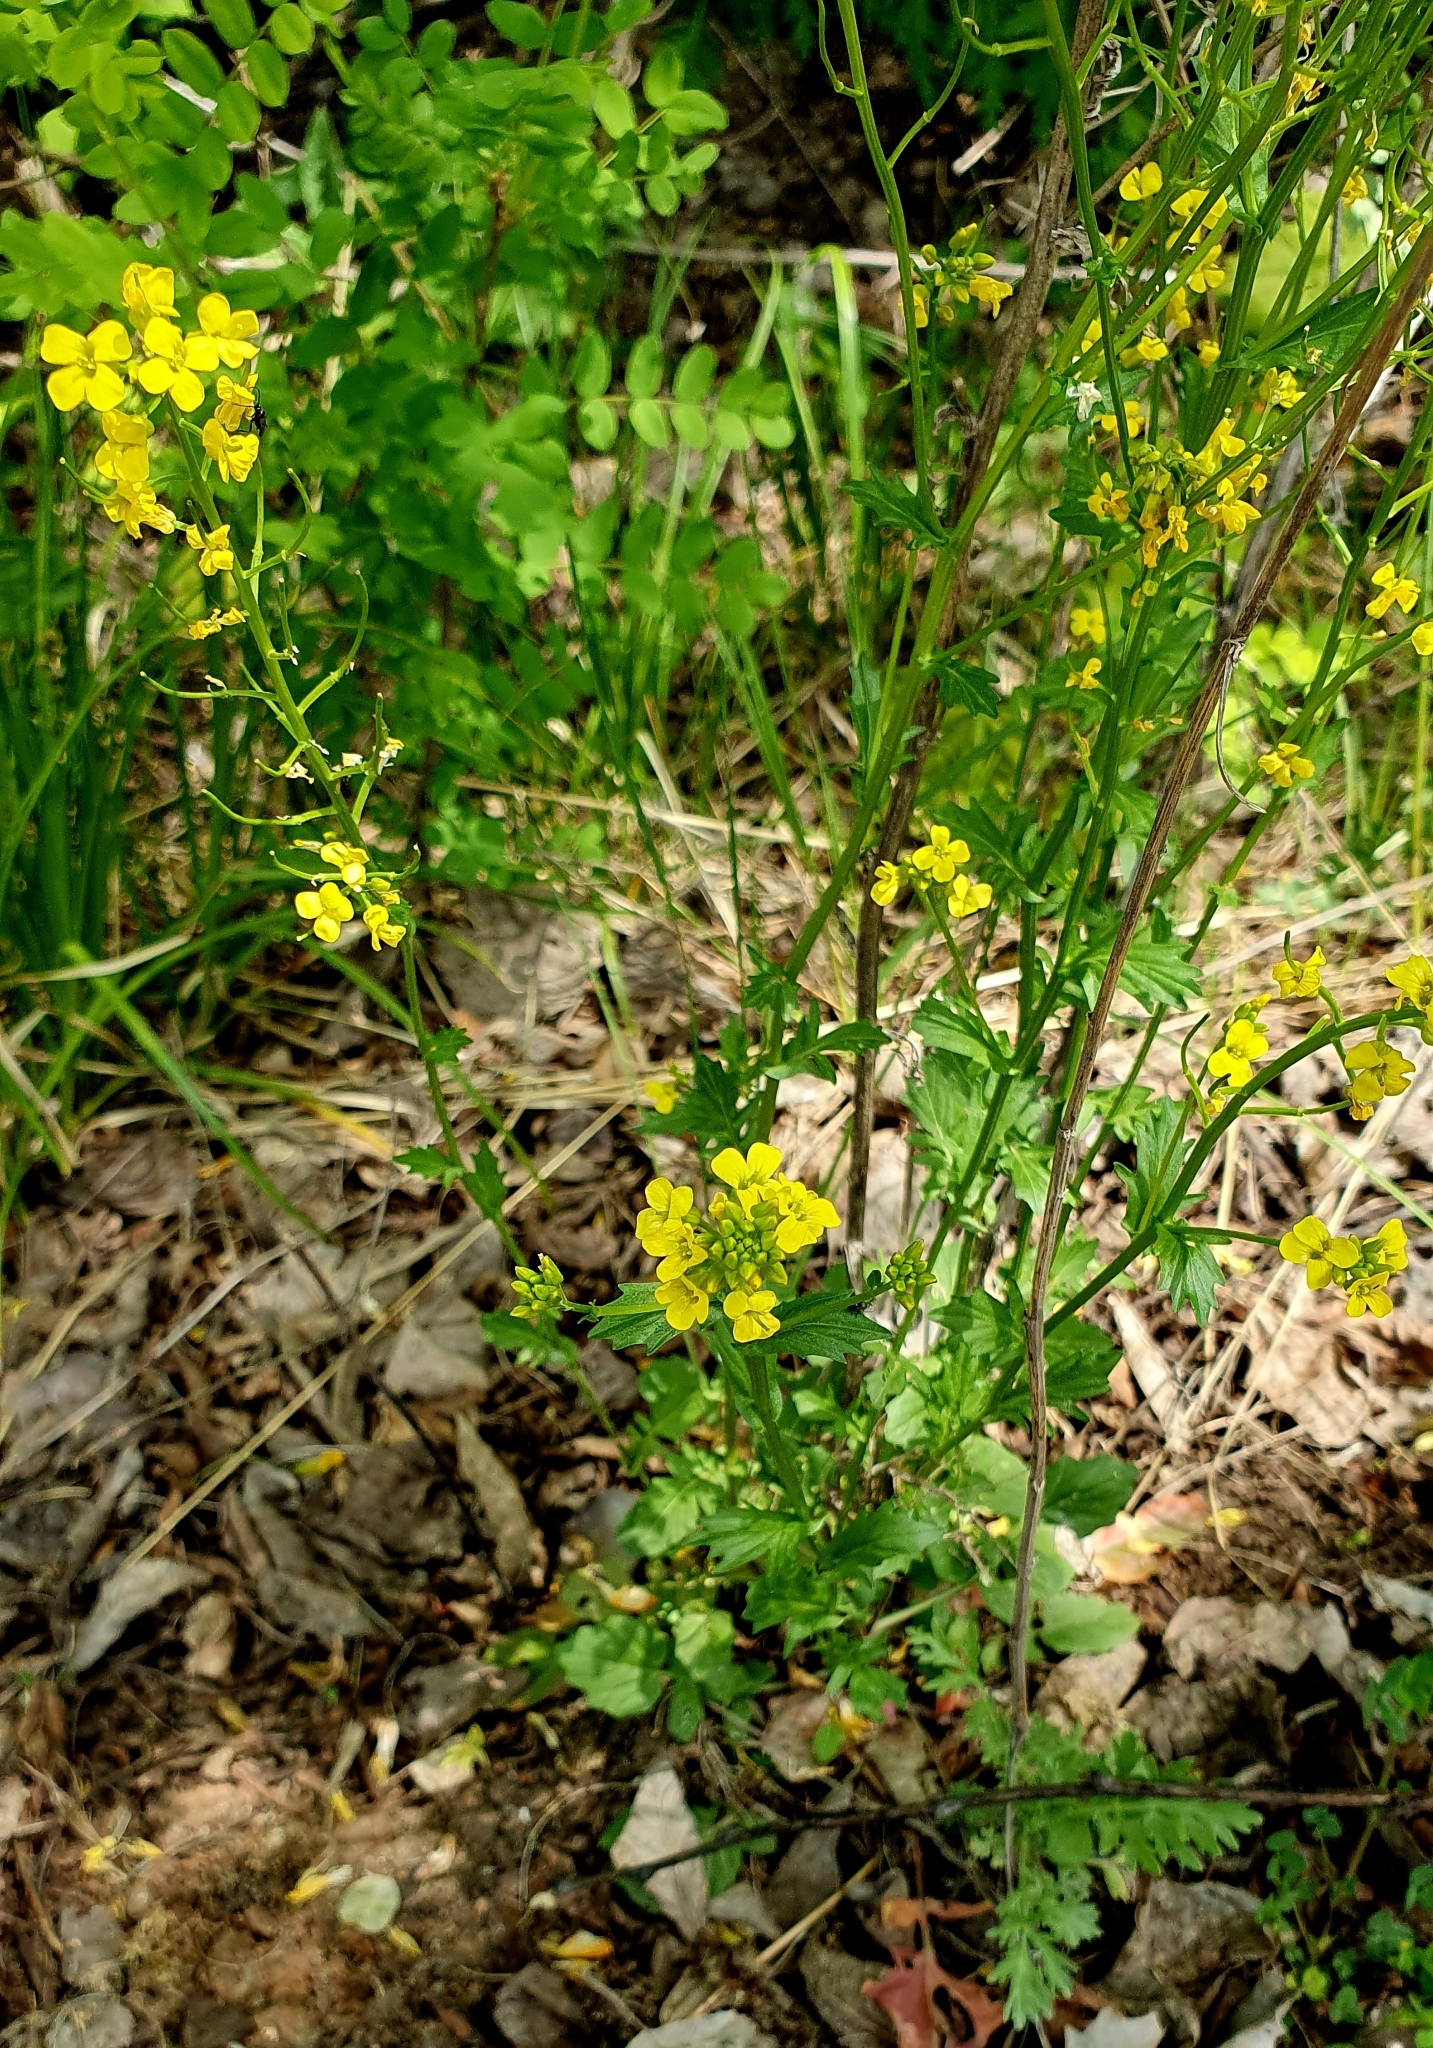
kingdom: Plantae
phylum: Tracheophyta
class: Magnoliopsida
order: Brassicales
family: Brassicaceae
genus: Barbarea
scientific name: Barbarea vulgaris
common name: Cressy-greens
